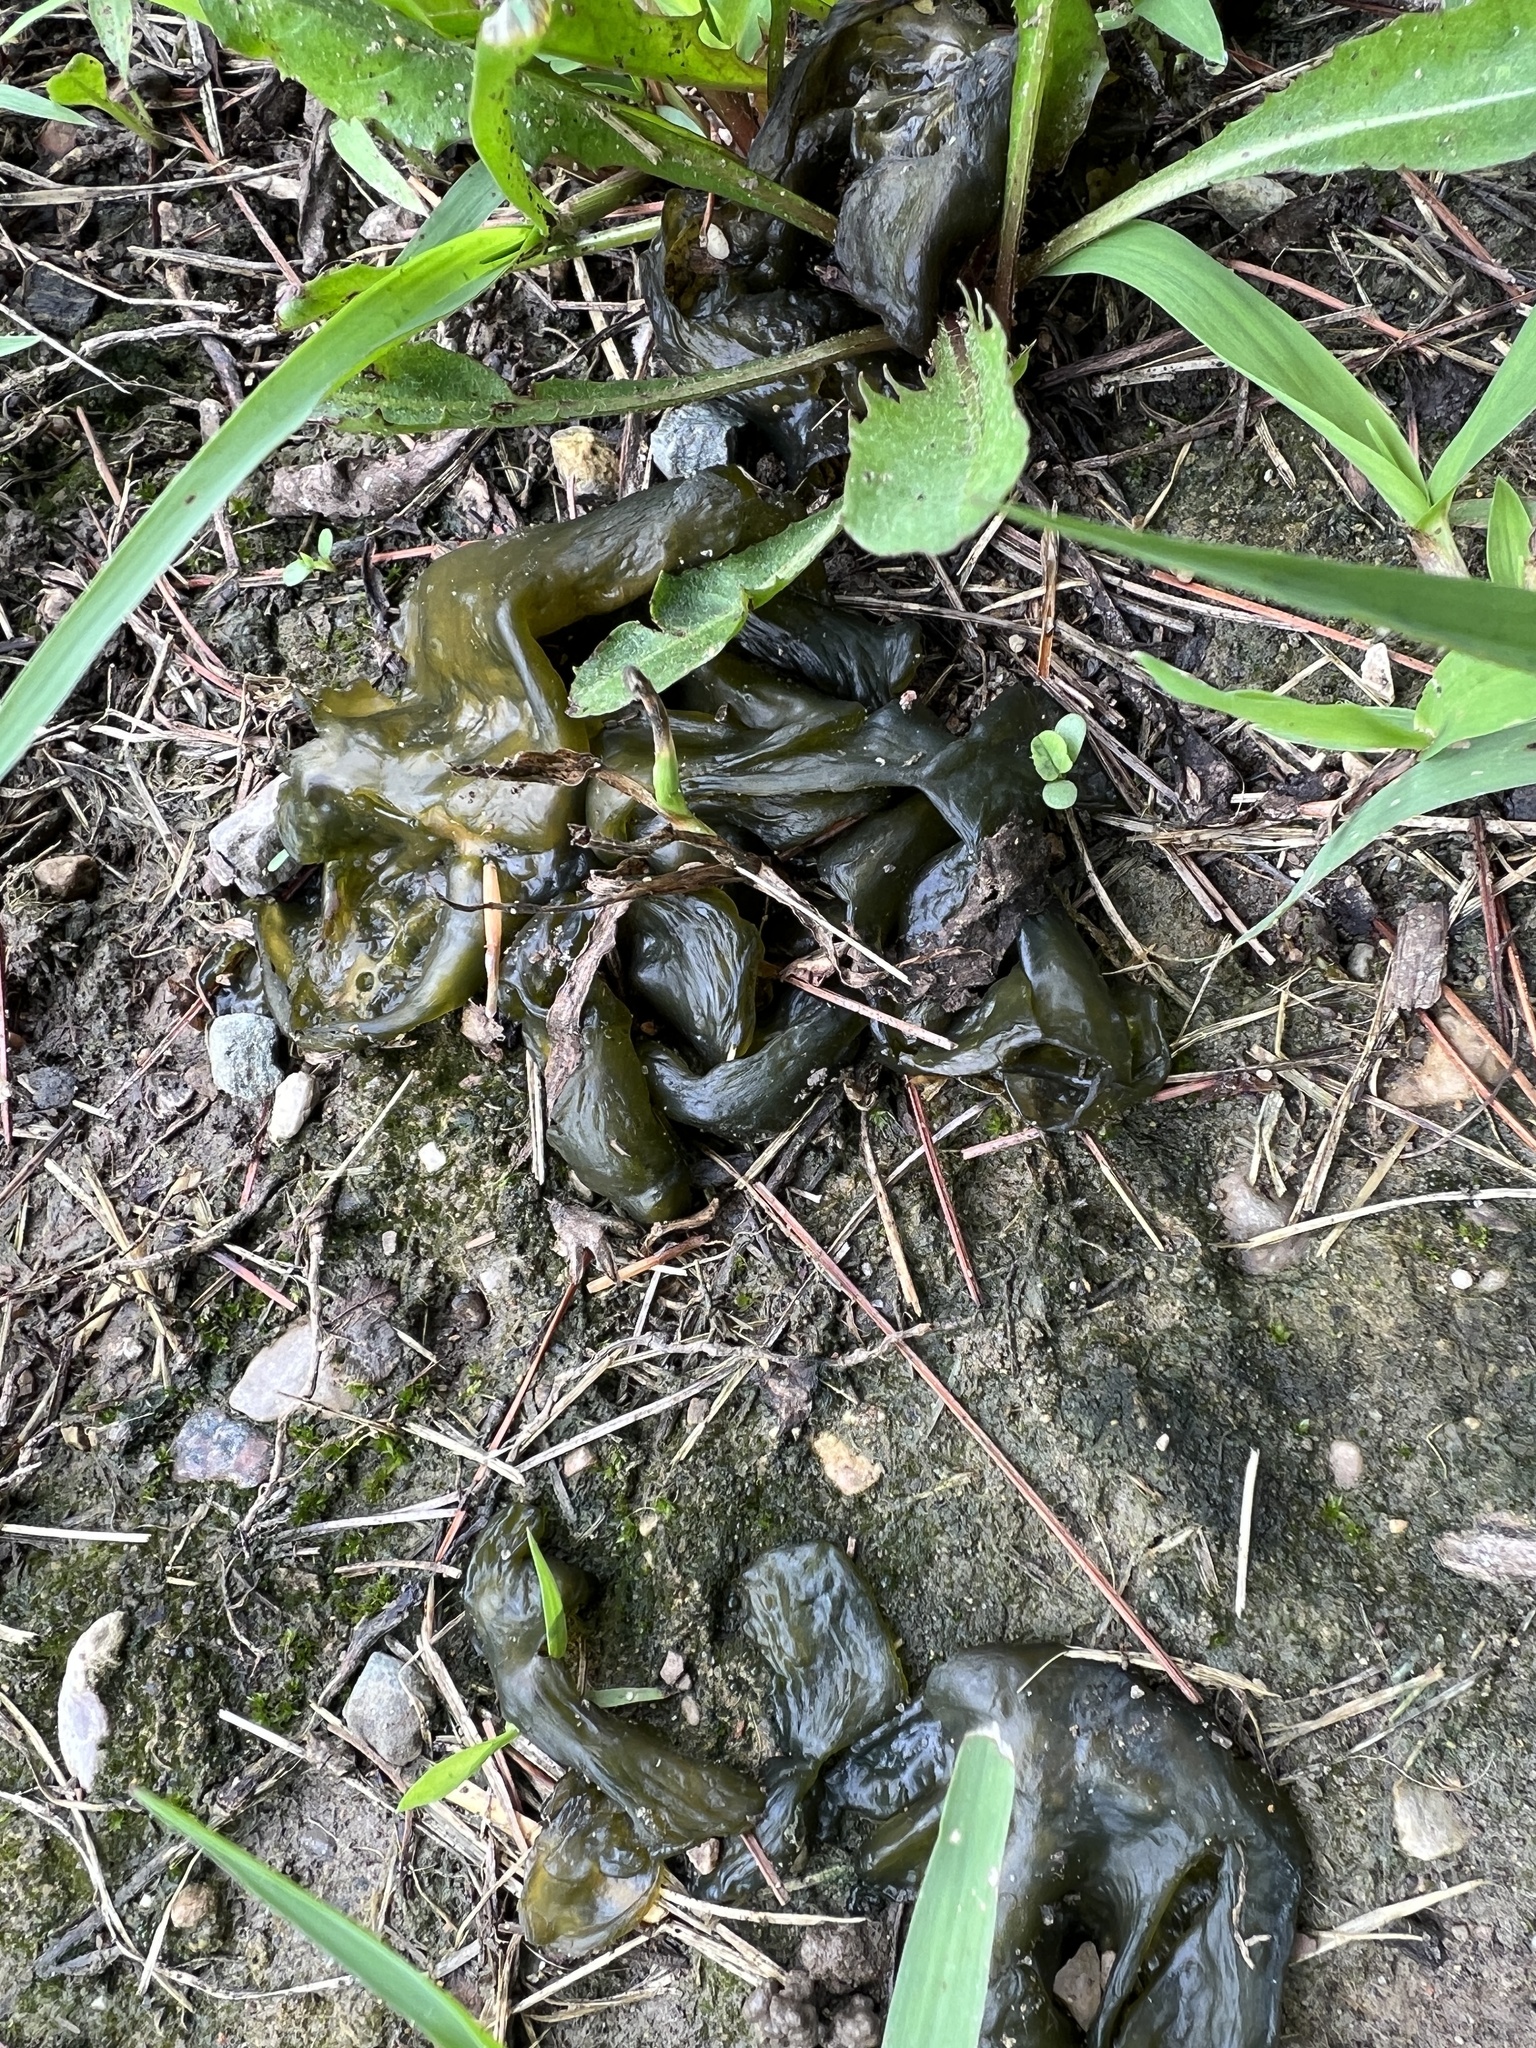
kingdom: Bacteria
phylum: Cyanobacteria
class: Cyanobacteriia
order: Cyanobacteriales
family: Nostocaceae
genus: Nostoc
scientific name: Nostoc commune
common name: Star jelly
